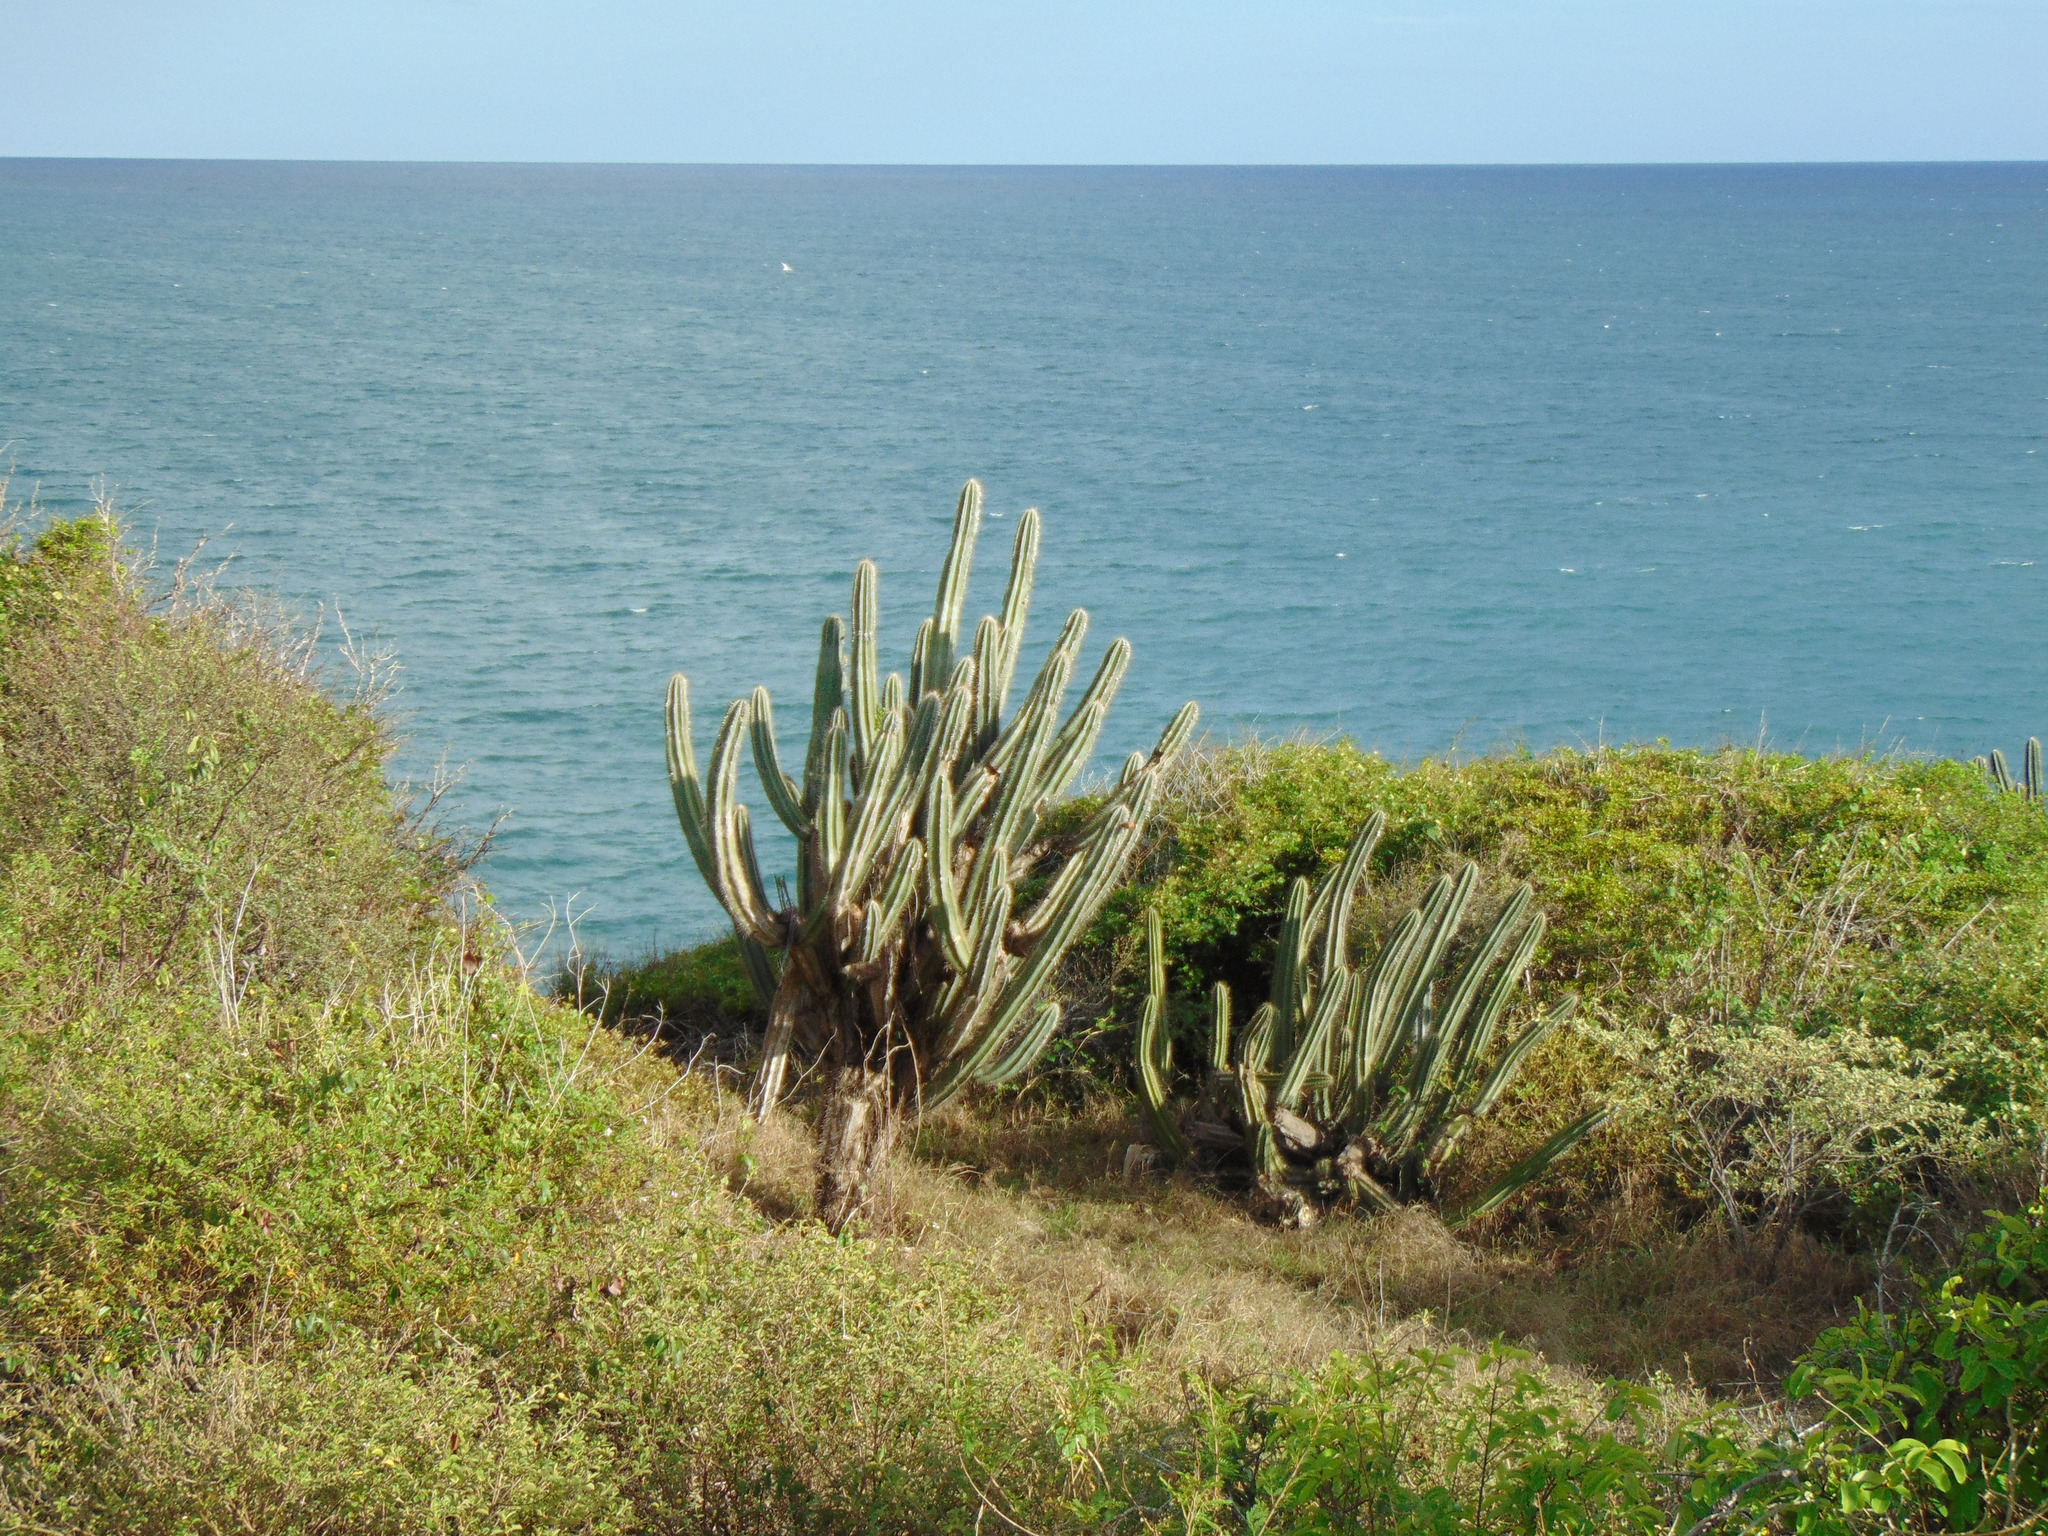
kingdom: Plantae
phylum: Tracheophyta
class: Magnoliopsida
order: Caryophyllales
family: Cactaceae
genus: Pilosocereus
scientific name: Pilosocereus armatus
